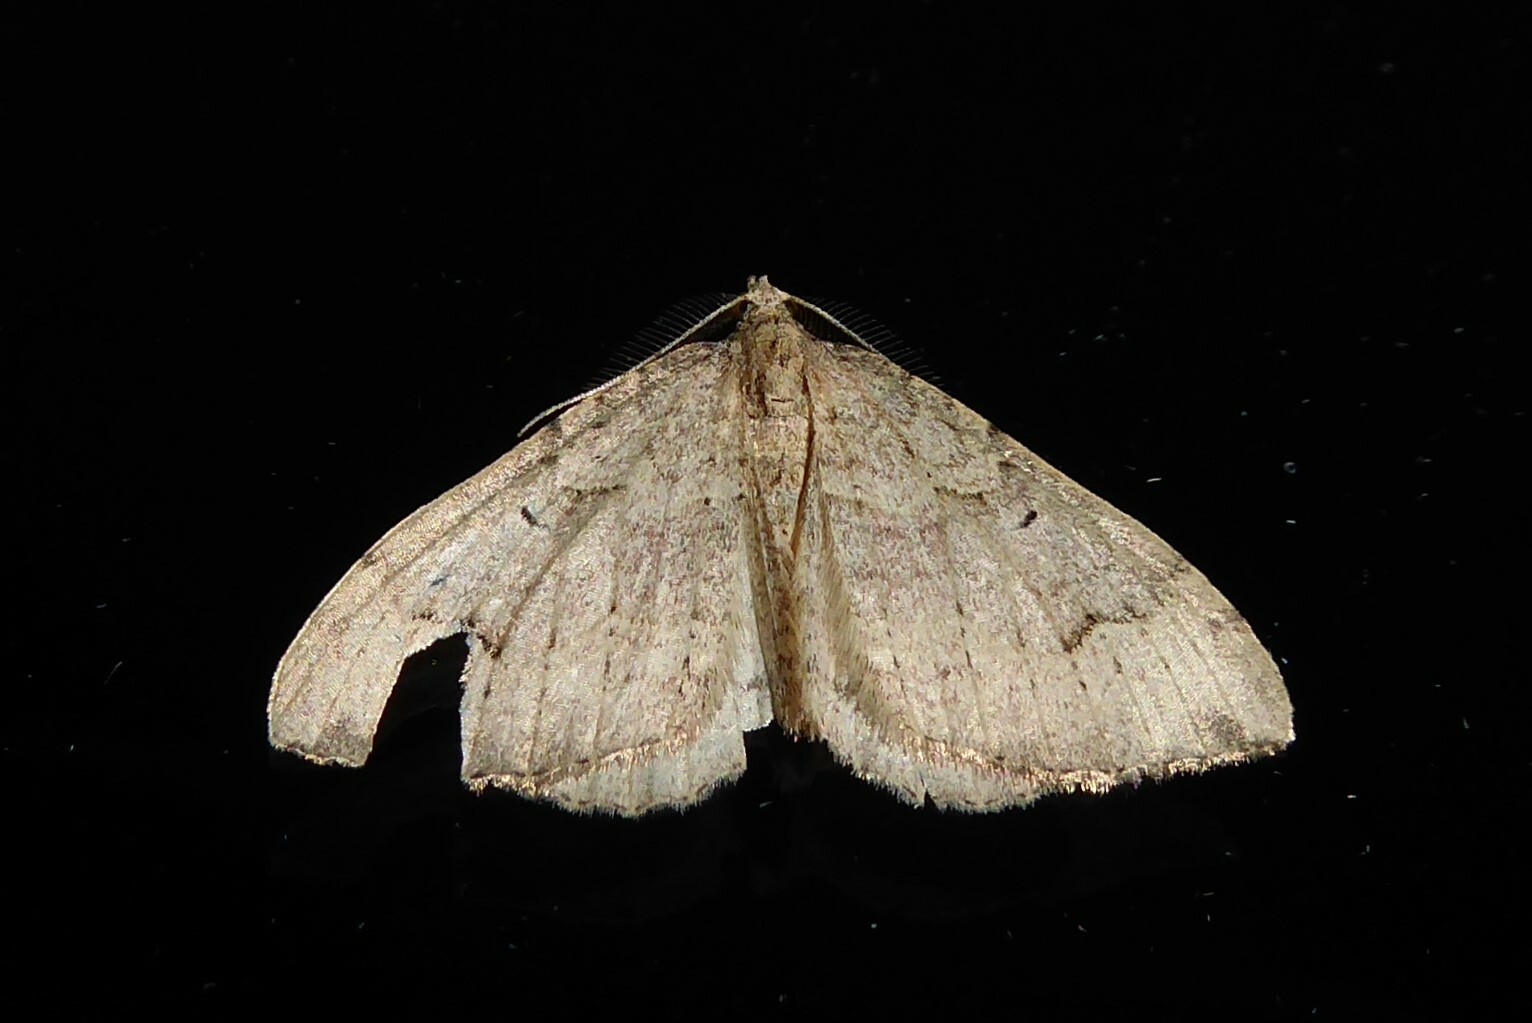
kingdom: Animalia
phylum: Arthropoda
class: Insecta
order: Lepidoptera
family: Geometridae
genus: Epyaxa
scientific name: Epyaxa rosearia
